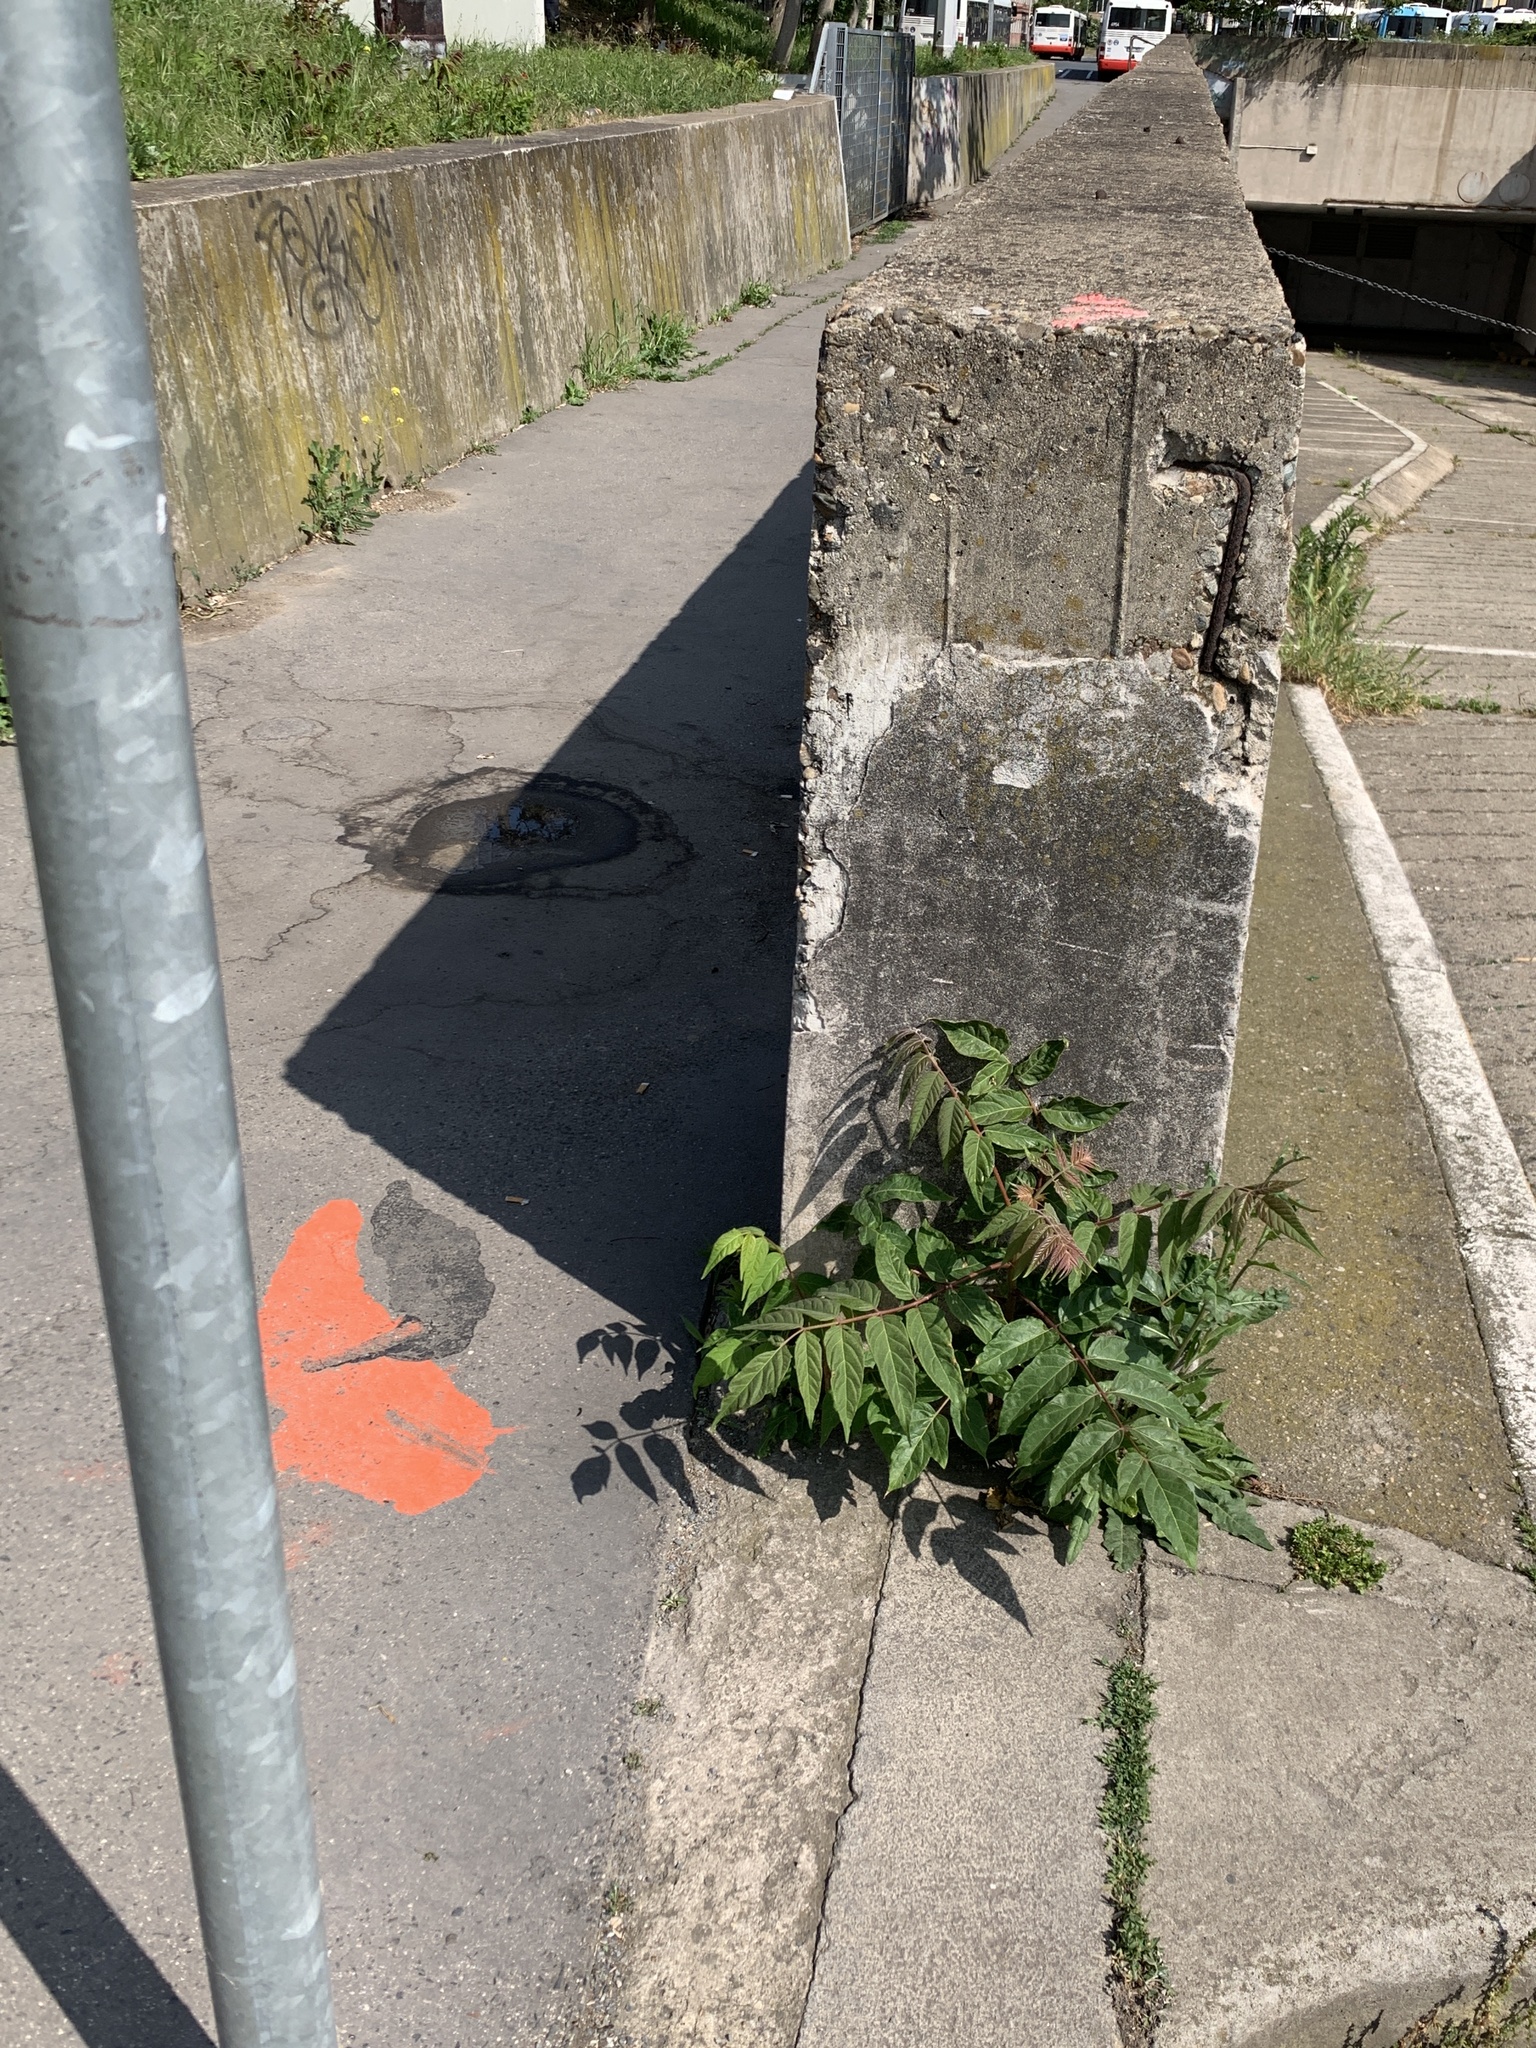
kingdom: Plantae
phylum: Tracheophyta
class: Magnoliopsida
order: Sapindales
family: Simaroubaceae
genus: Ailanthus
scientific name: Ailanthus altissima
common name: Tree-of-heaven
